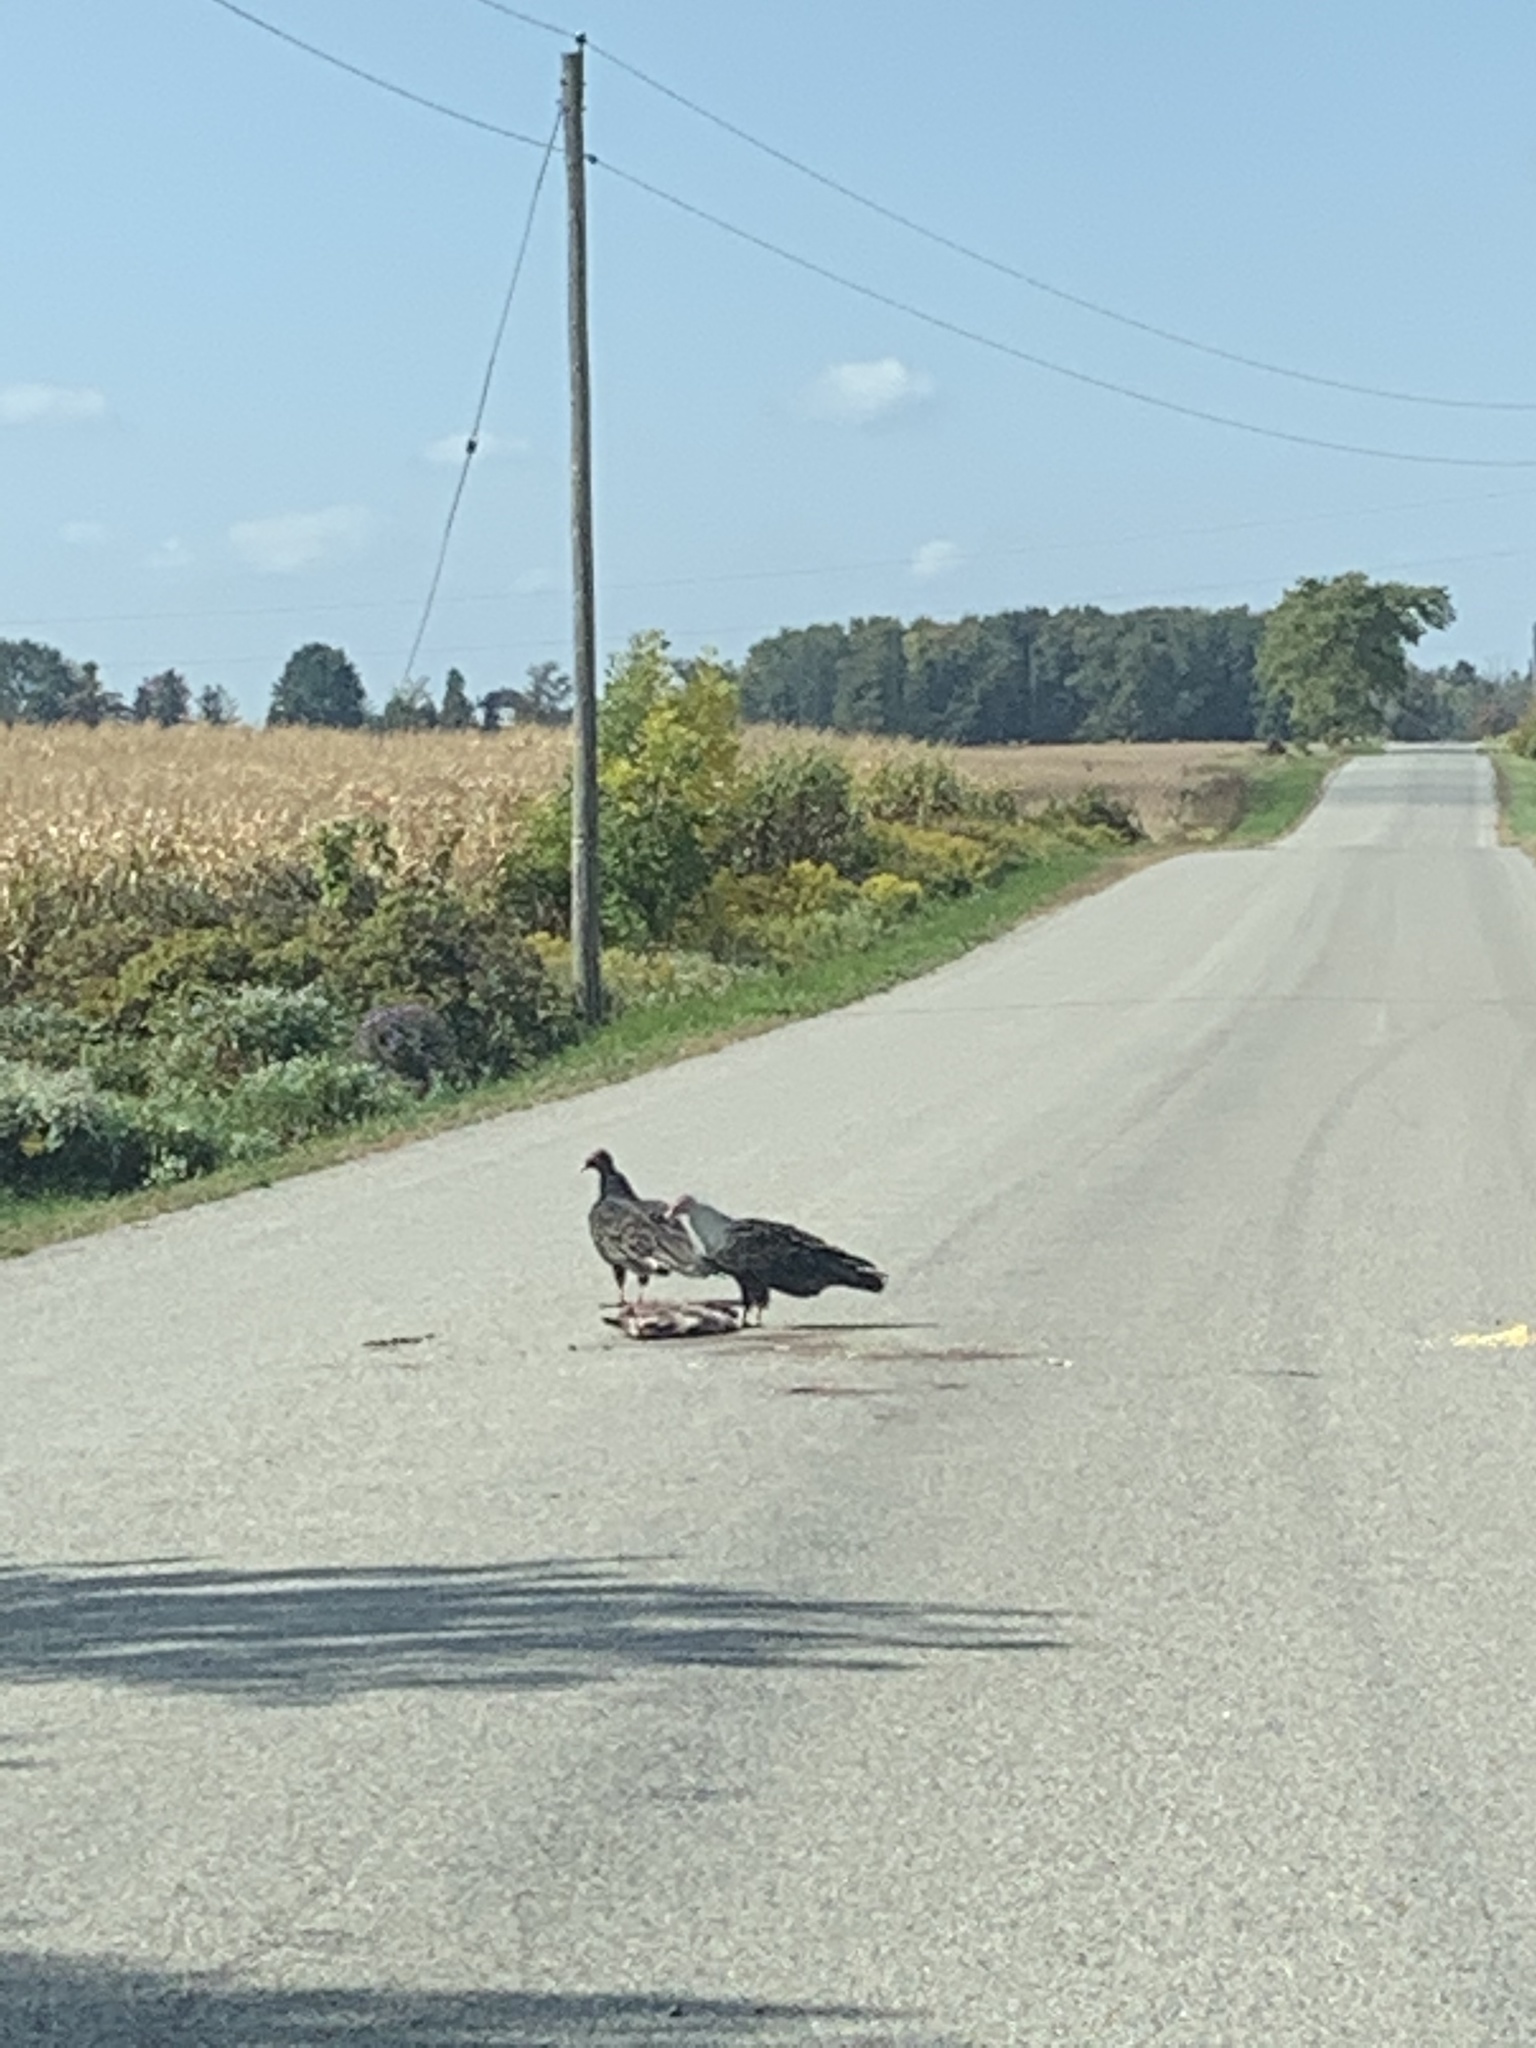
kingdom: Animalia
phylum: Chordata
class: Aves
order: Accipitriformes
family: Cathartidae
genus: Cathartes
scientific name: Cathartes aura
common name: Turkey vulture
